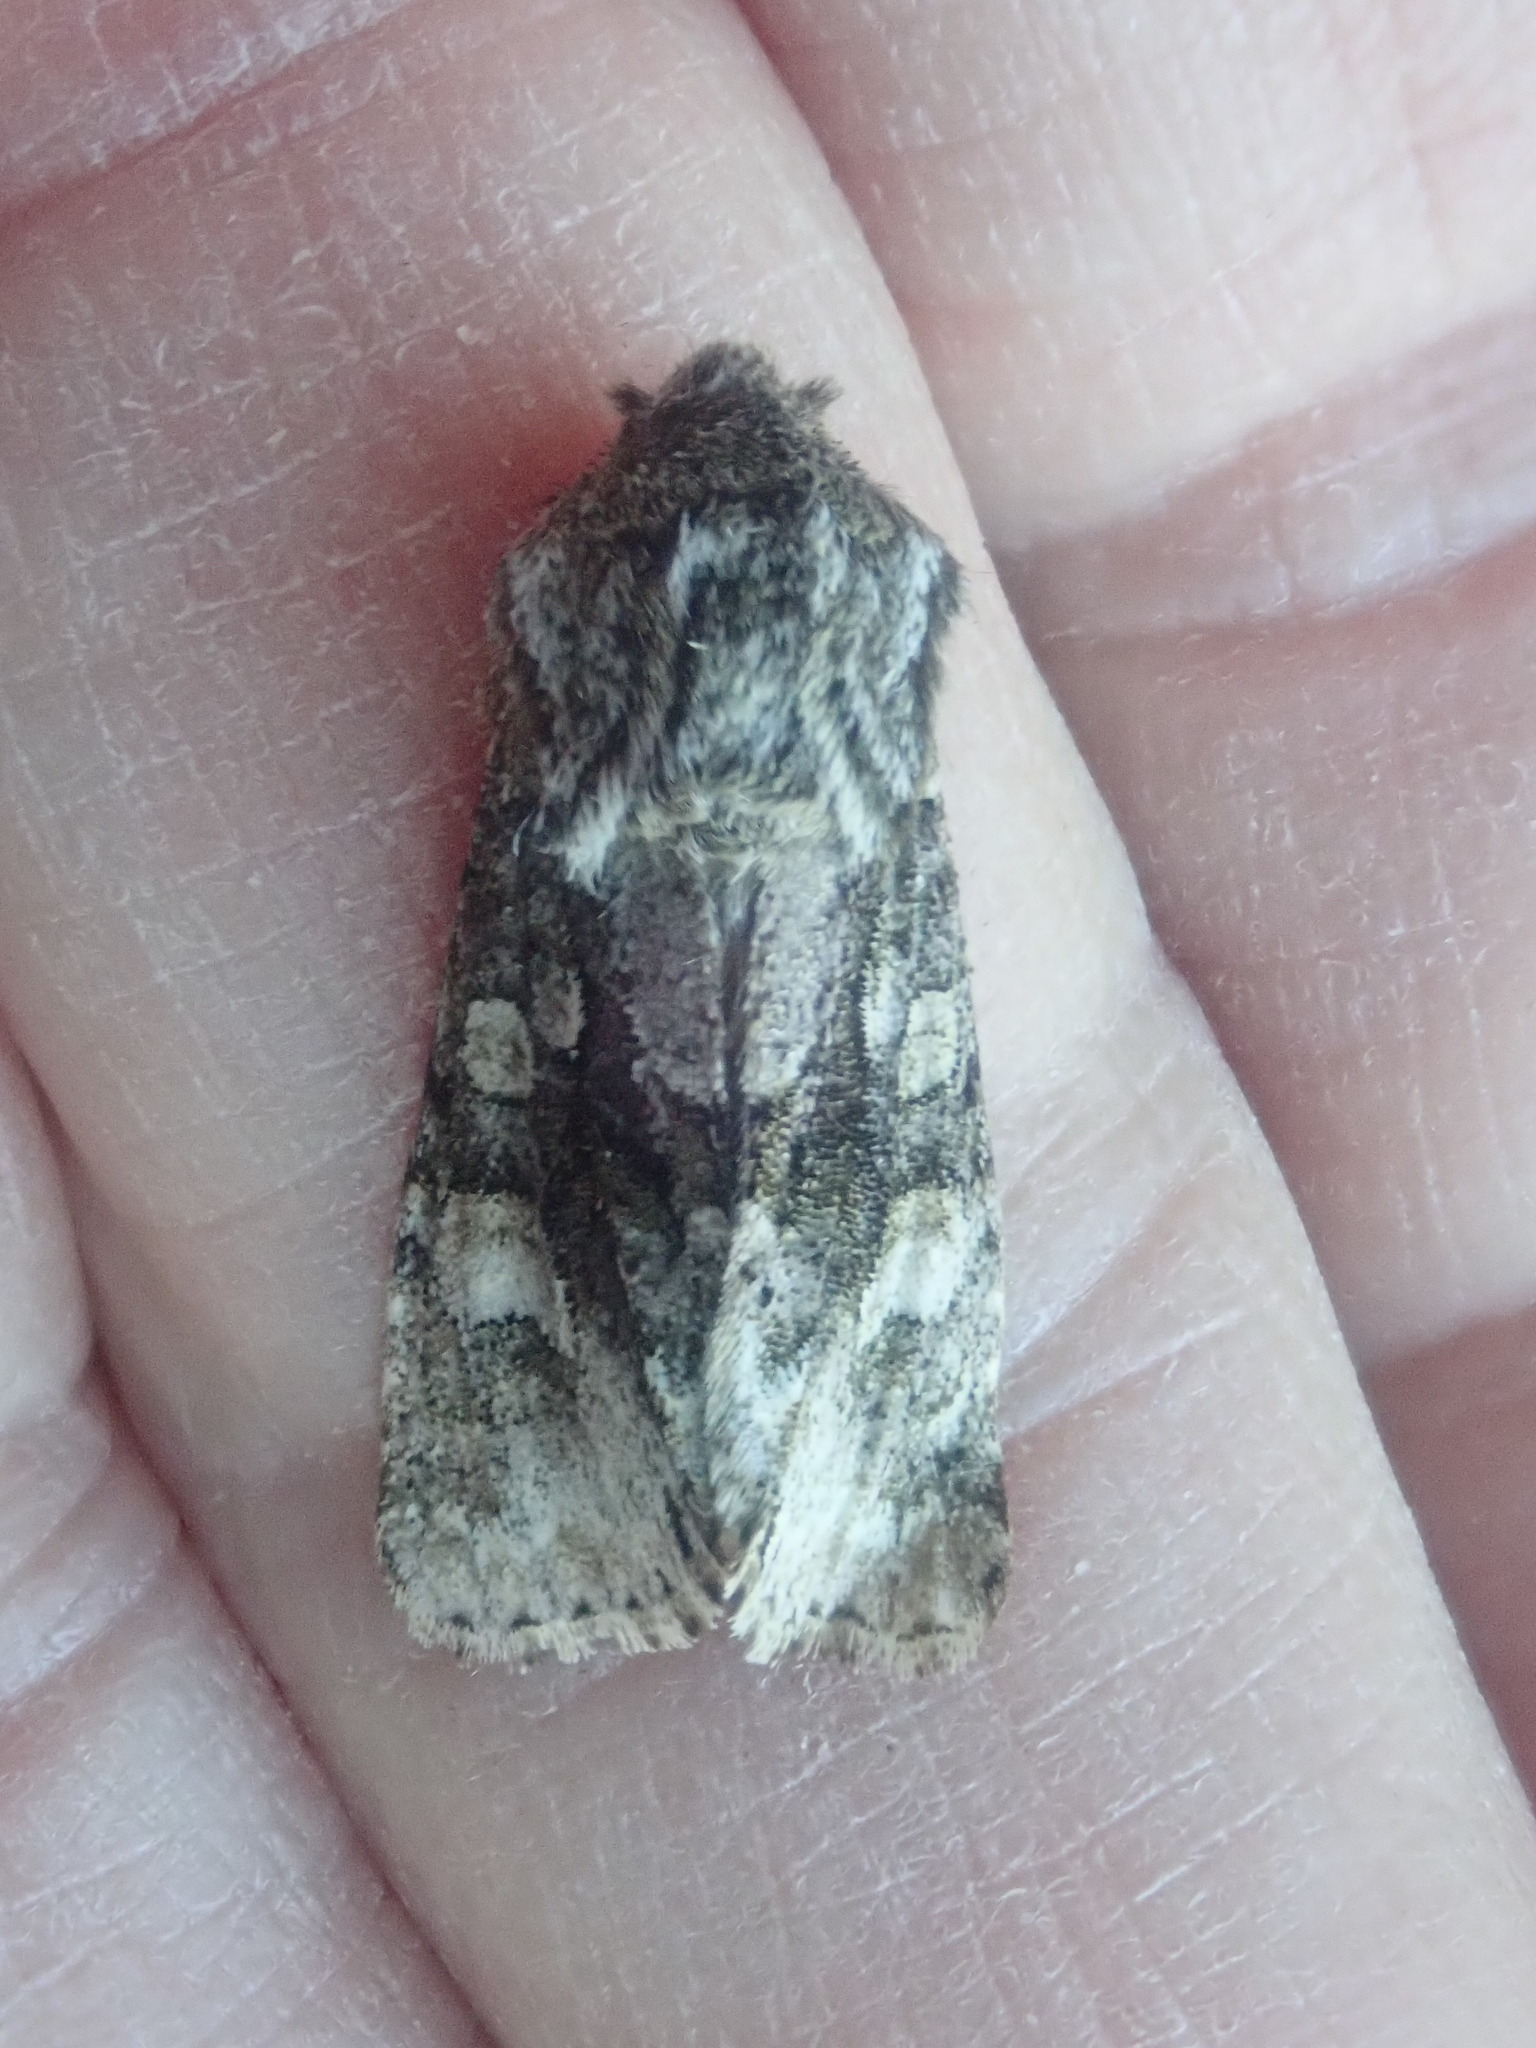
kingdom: Animalia
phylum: Arthropoda
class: Insecta
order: Lepidoptera
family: Noctuidae
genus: Psaphida
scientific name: Psaphida resumens
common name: Figure-eight sallow
